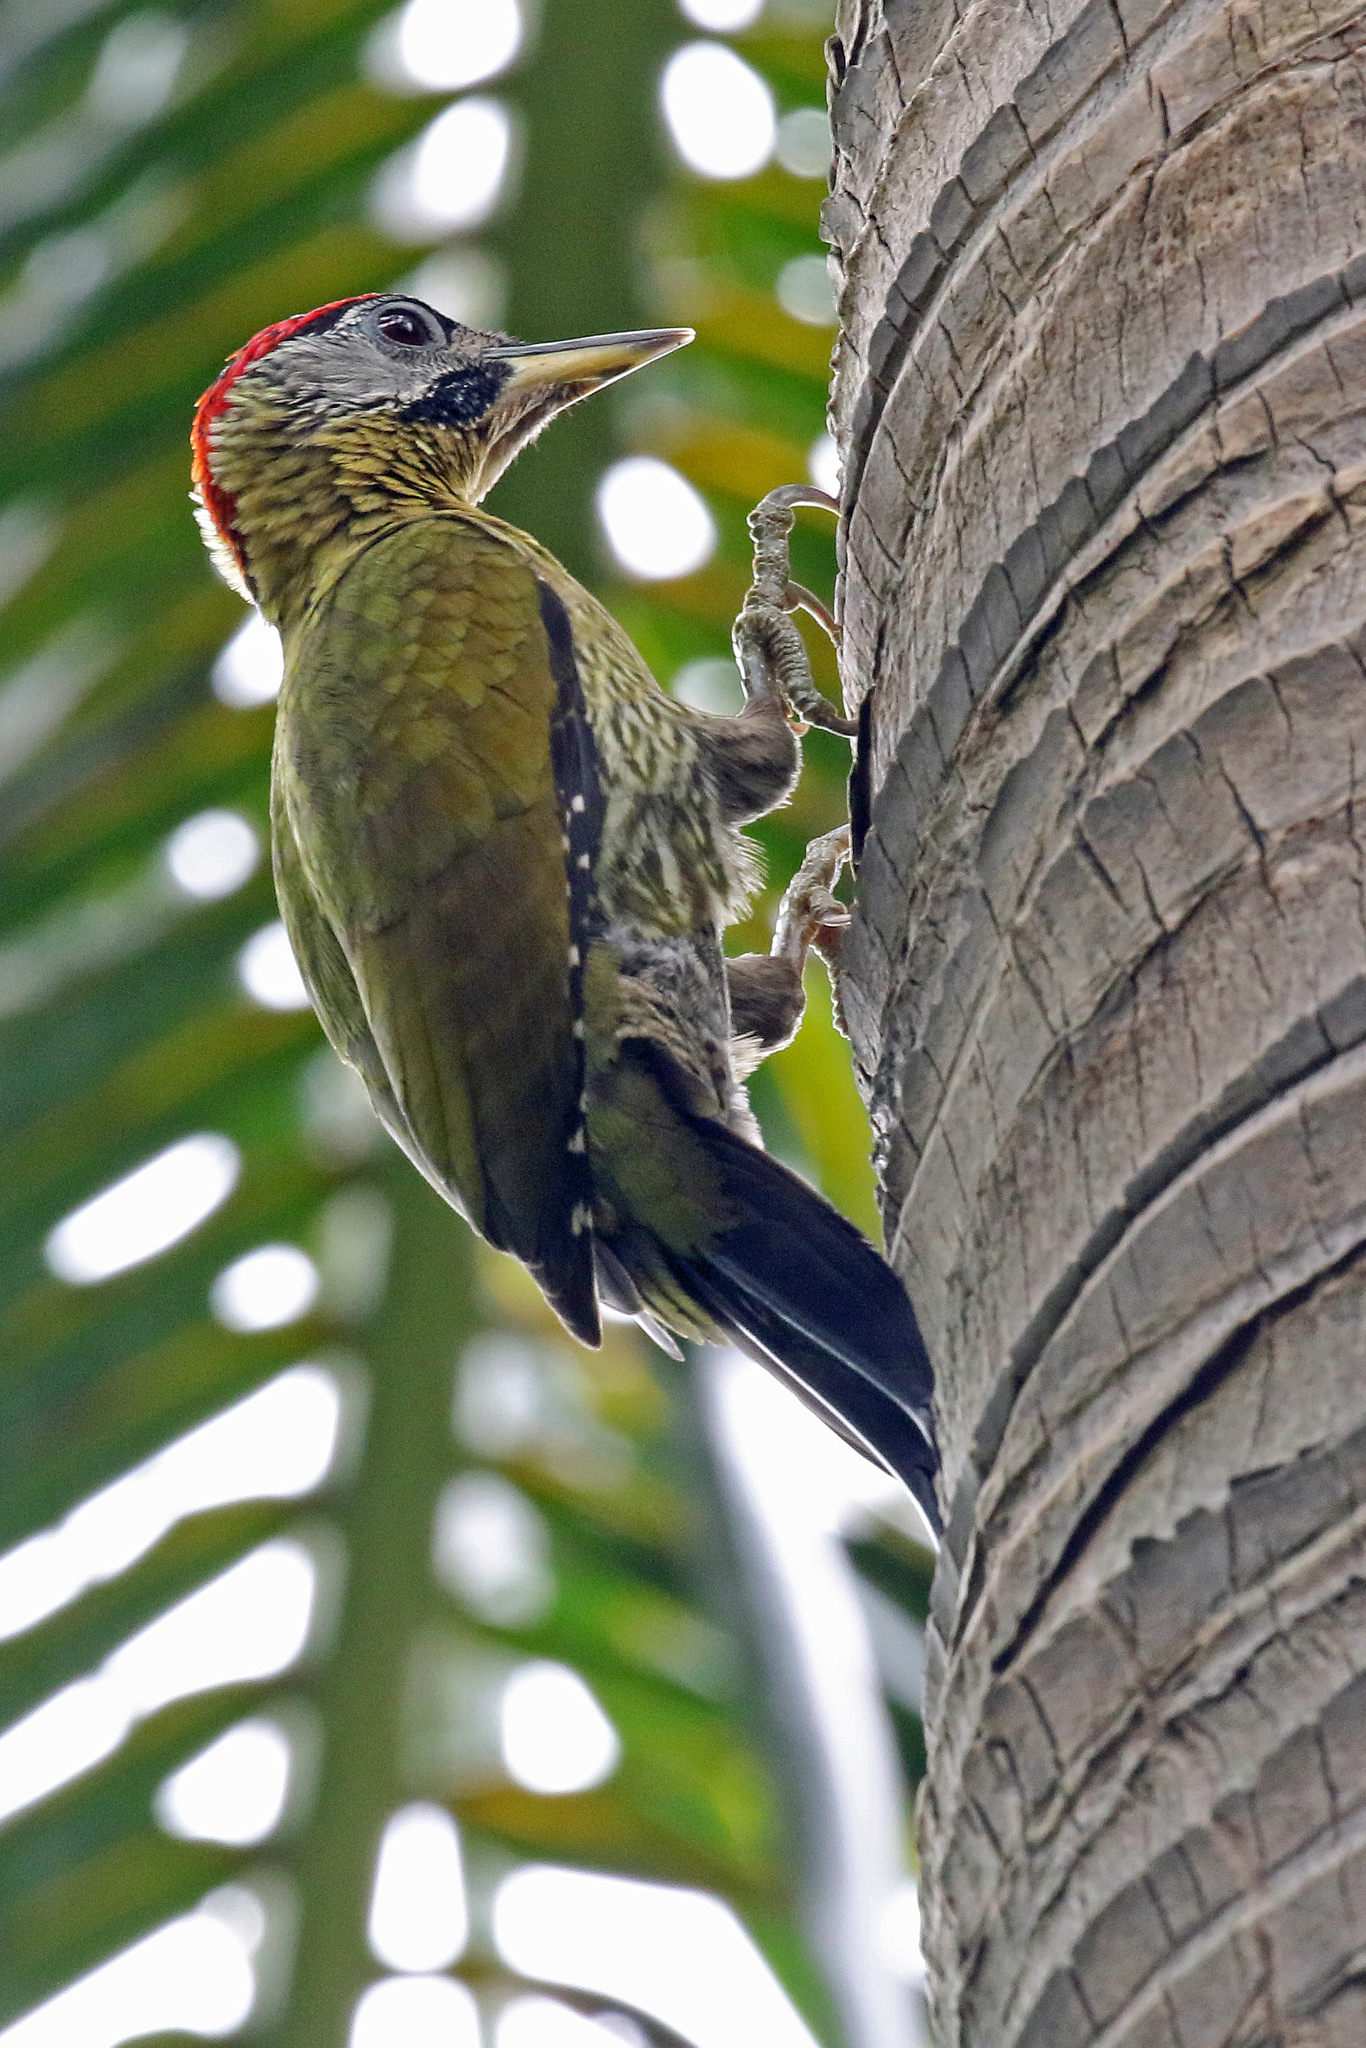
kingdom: Animalia
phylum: Chordata
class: Aves
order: Piciformes
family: Picidae
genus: Picus
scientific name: Picus vittatus
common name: Laced woodpecker
